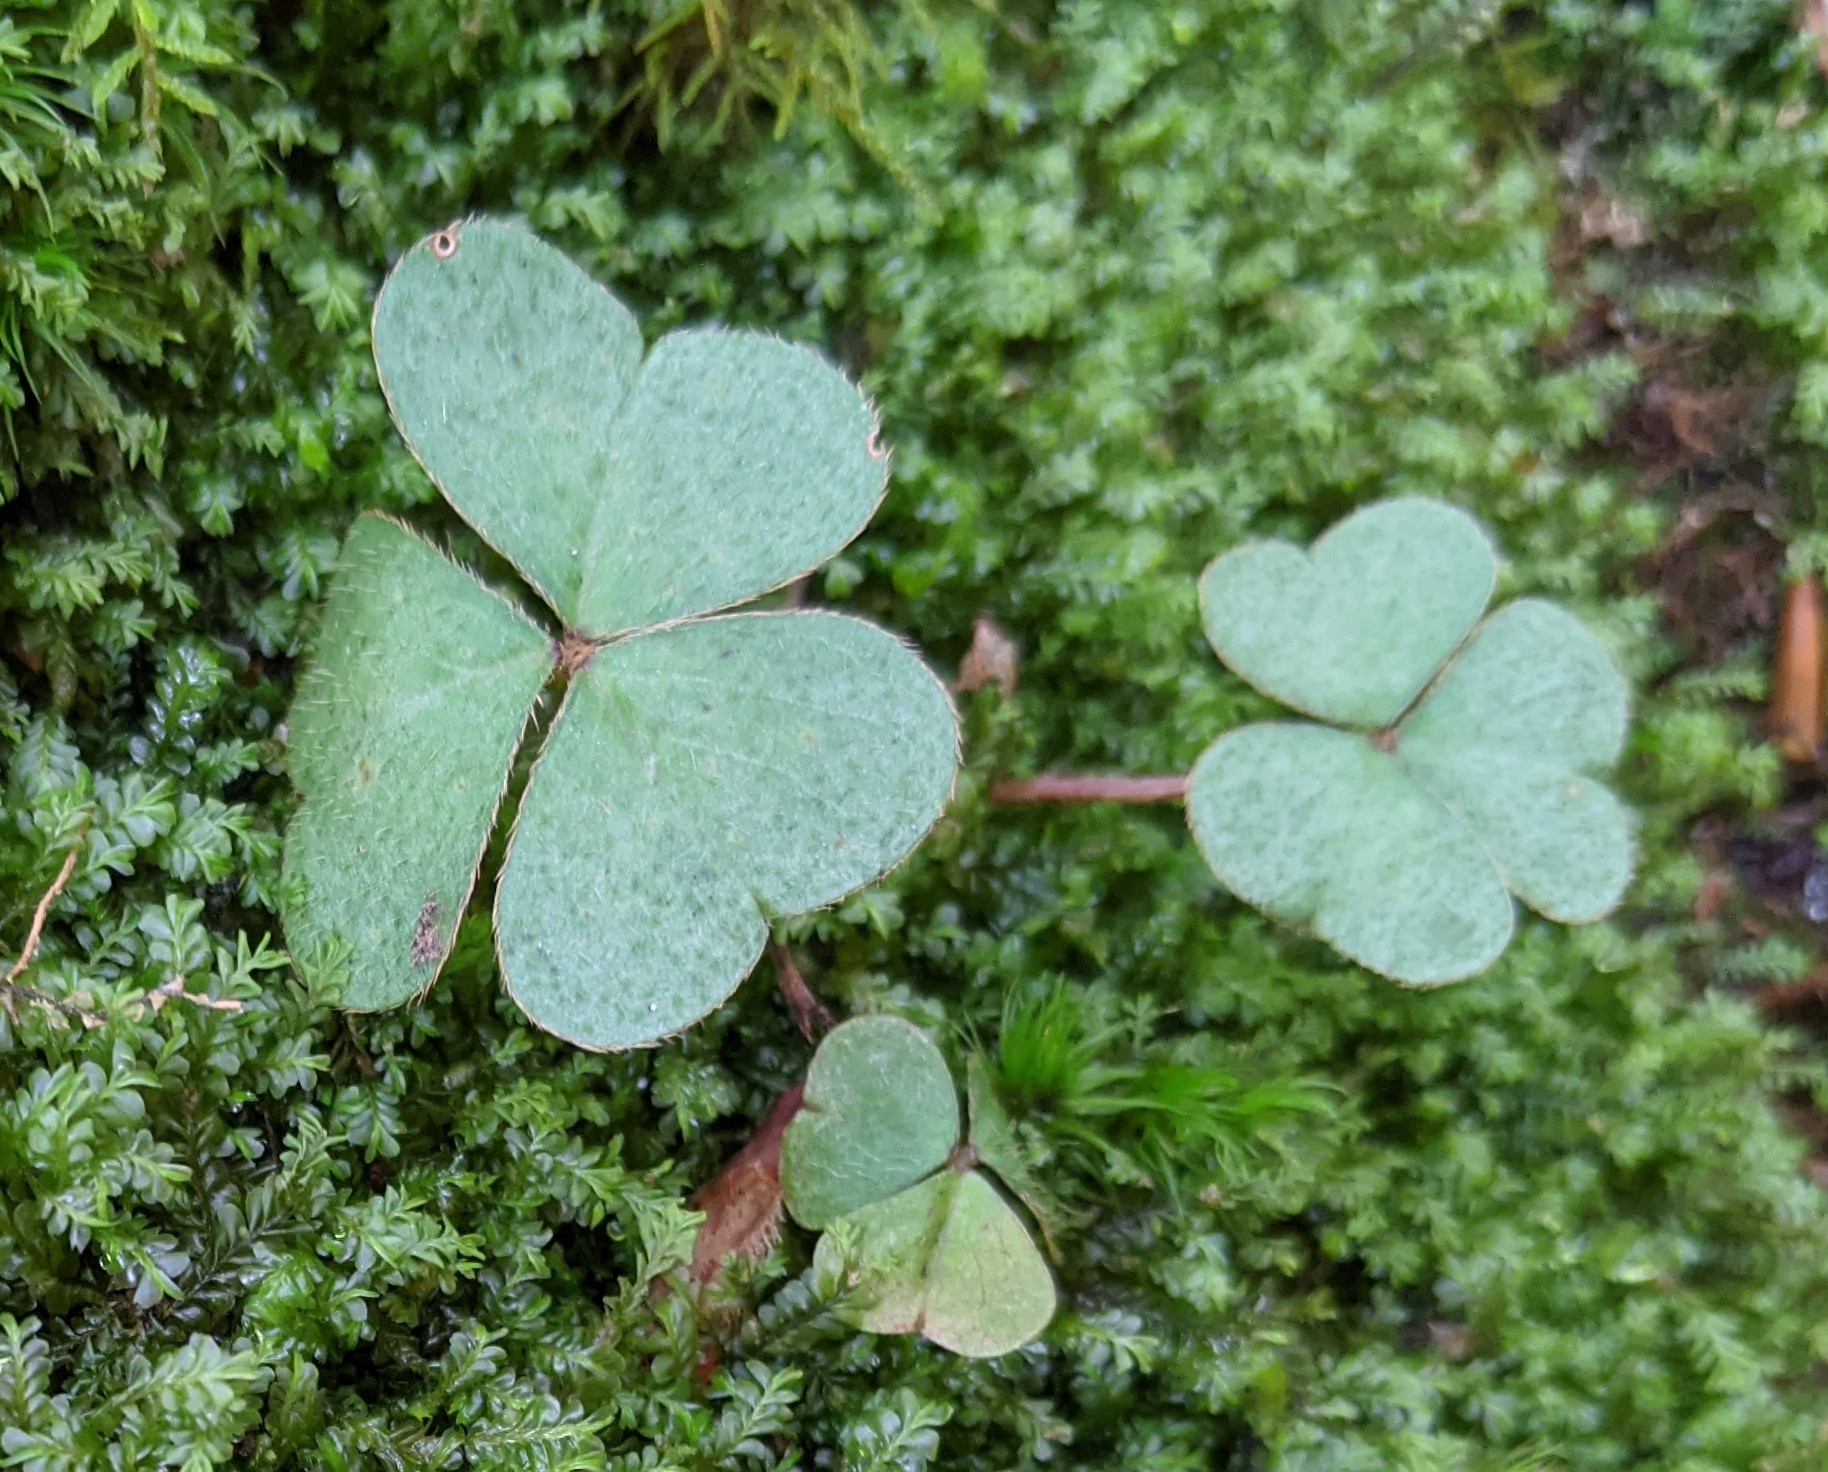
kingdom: Plantae
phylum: Tracheophyta
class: Magnoliopsida
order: Oxalidales
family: Oxalidaceae
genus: Oxalis
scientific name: Oxalis montana
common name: American wood-sorrel
